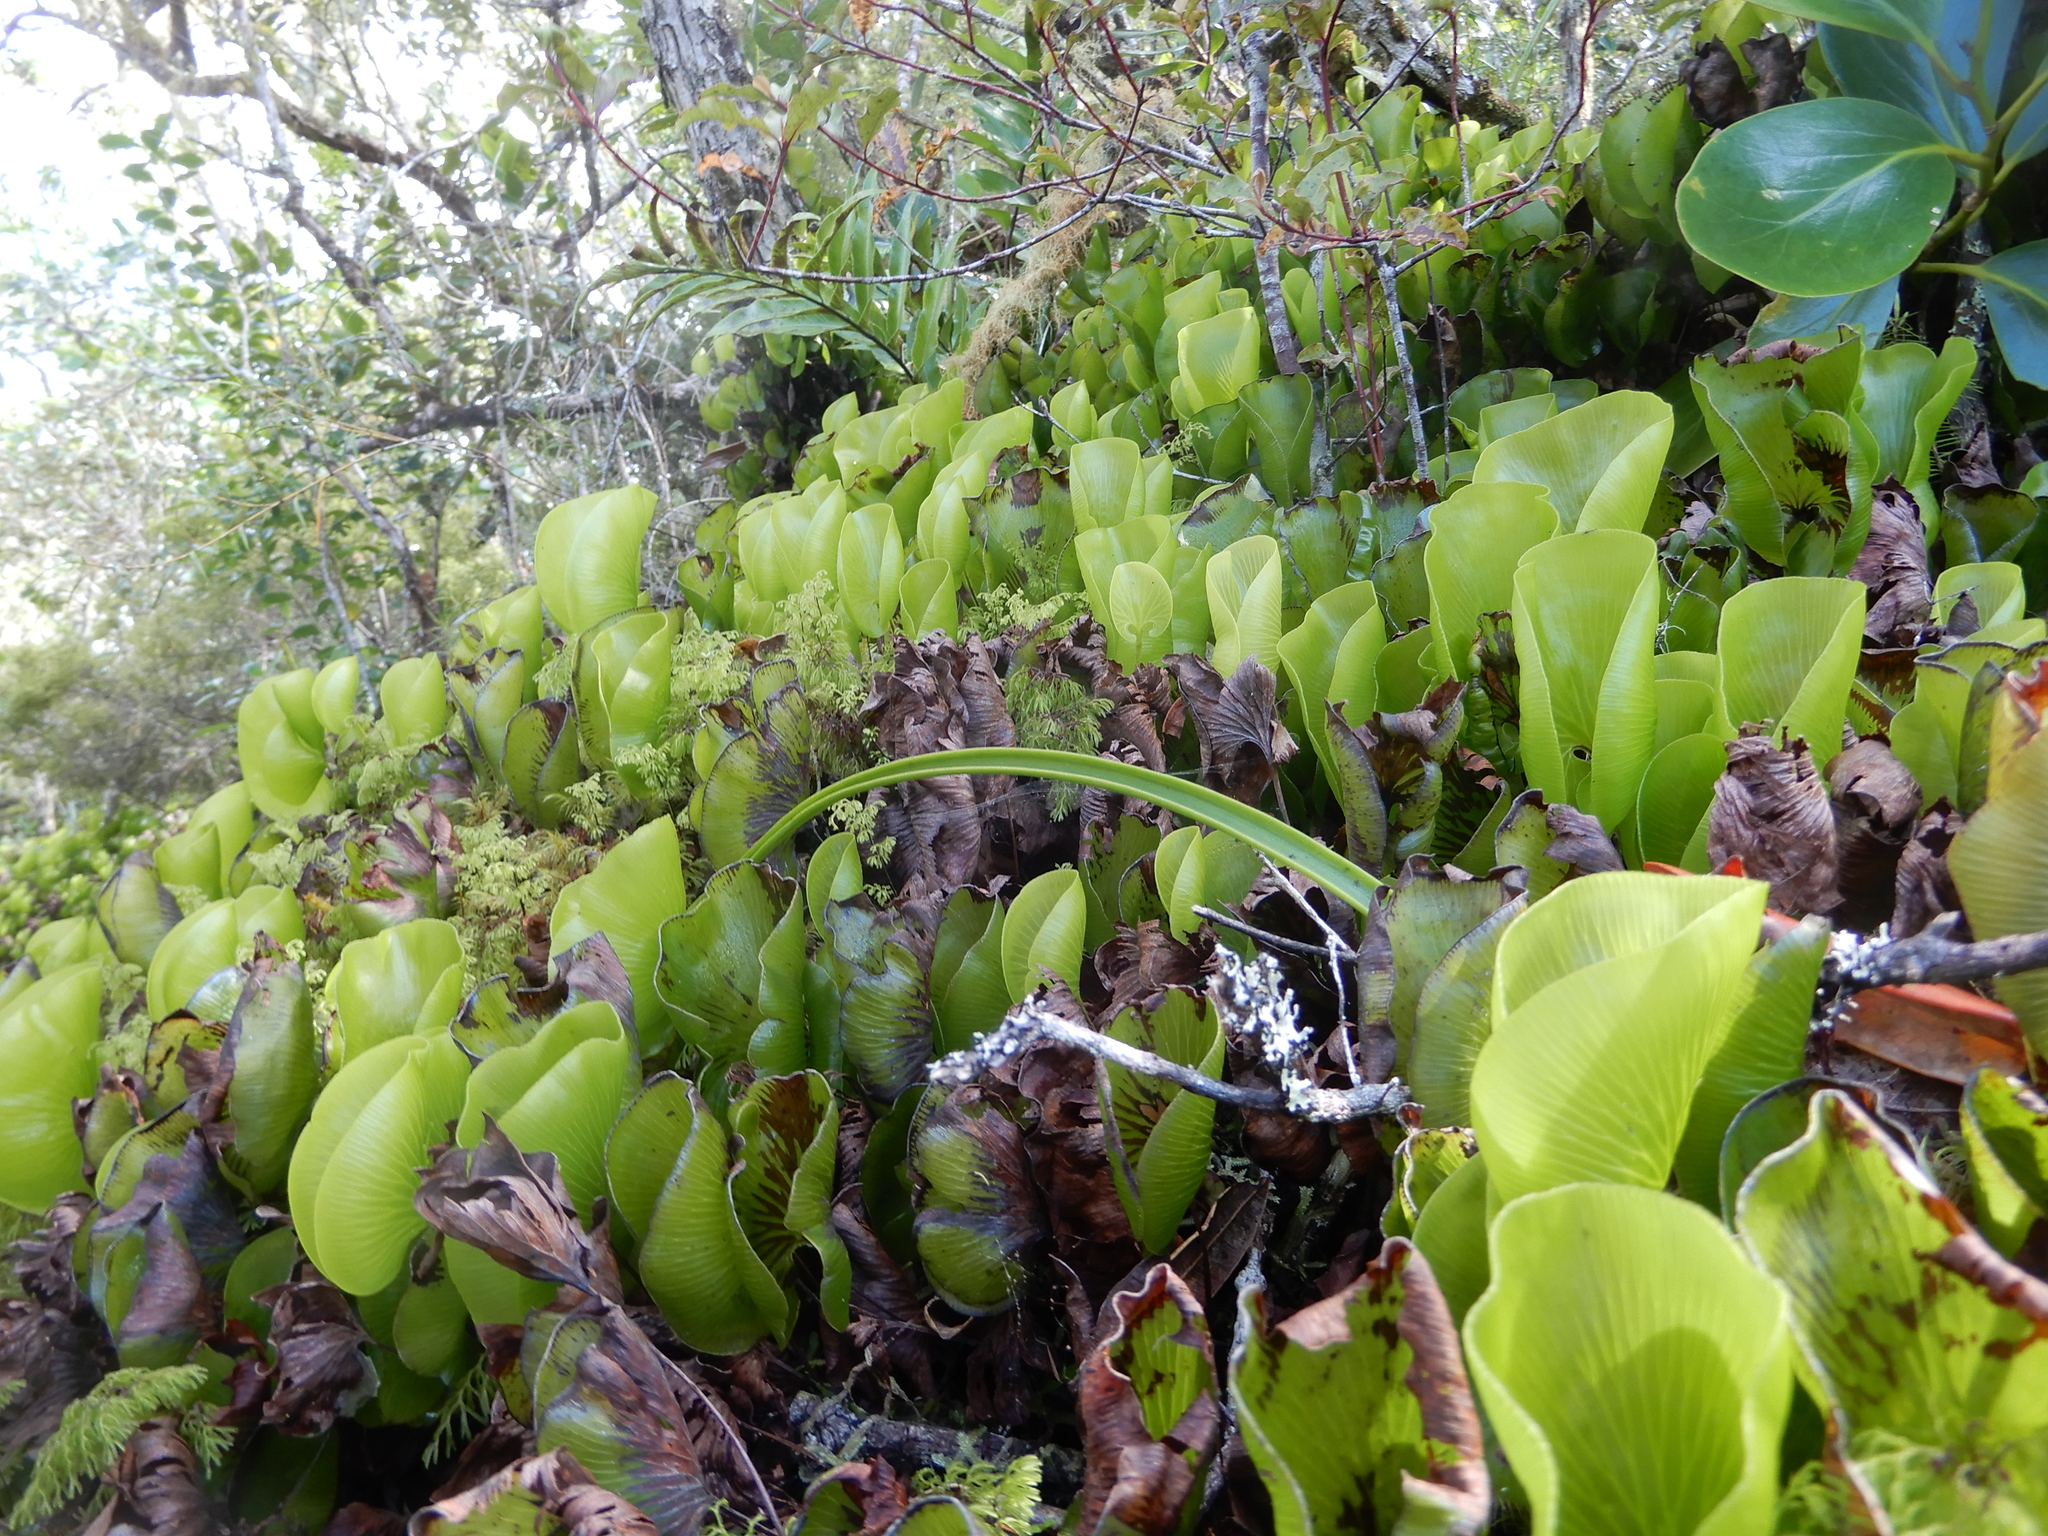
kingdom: Plantae
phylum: Tracheophyta
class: Polypodiopsida
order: Hymenophyllales
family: Hymenophyllaceae
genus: Hymenophyllum
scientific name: Hymenophyllum nephrophyllum
